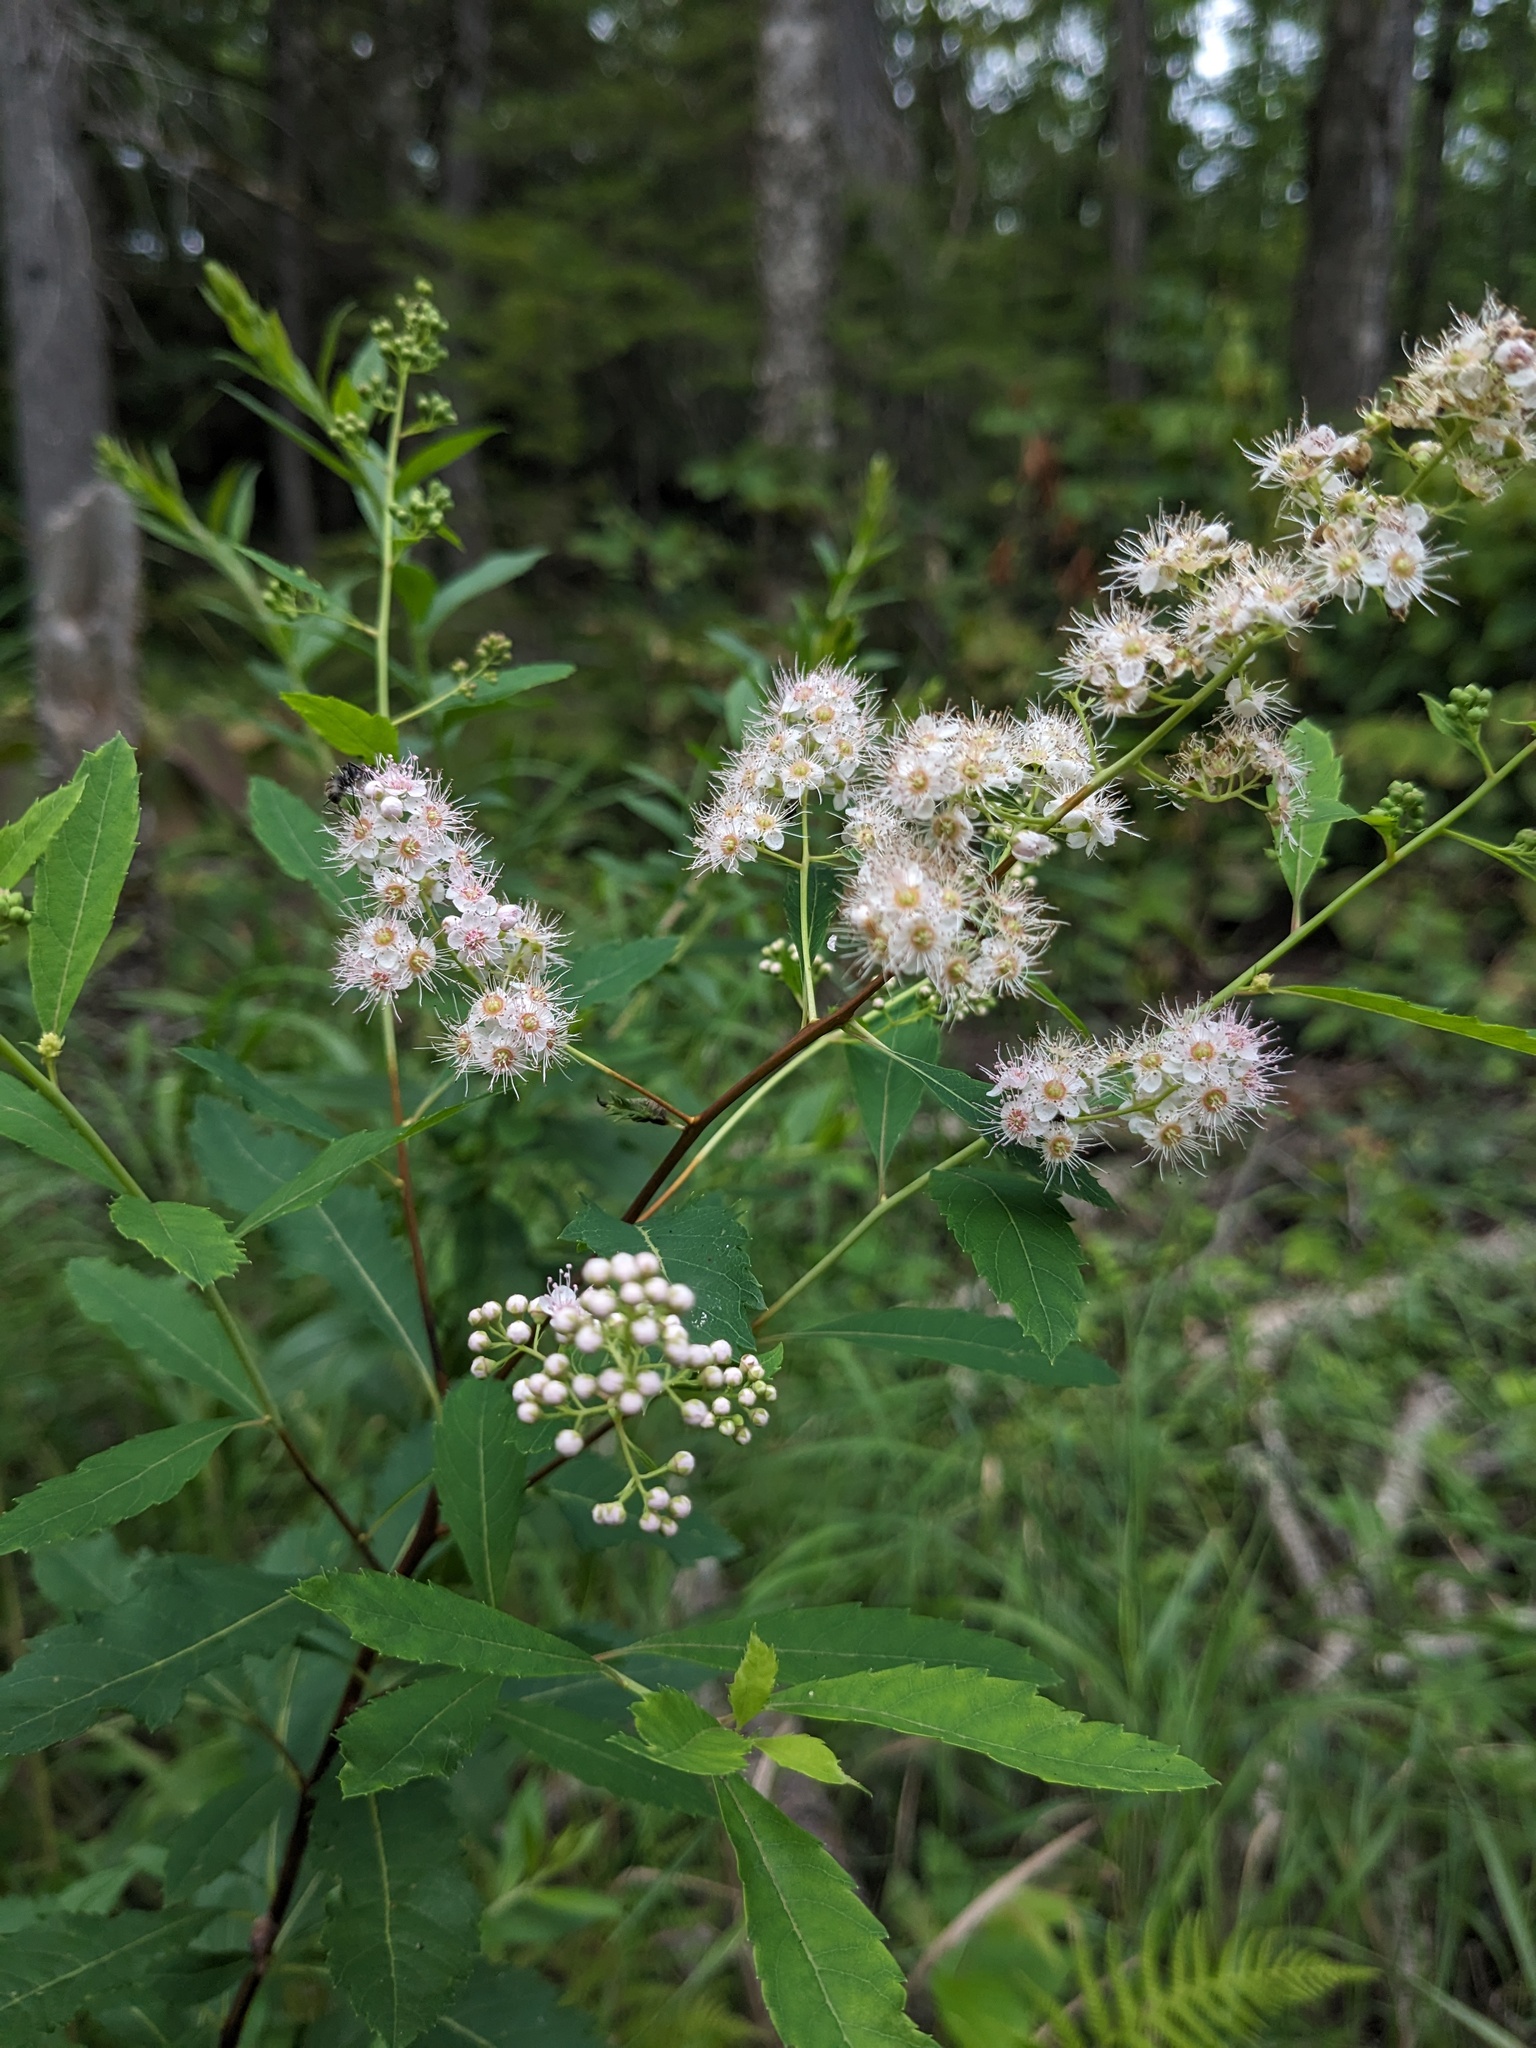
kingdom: Plantae
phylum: Tracheophyta
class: Magnoliopsida
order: Rosales
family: Rosaceae
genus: Spiraea
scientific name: Spiraea alba
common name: Pale bridewort
